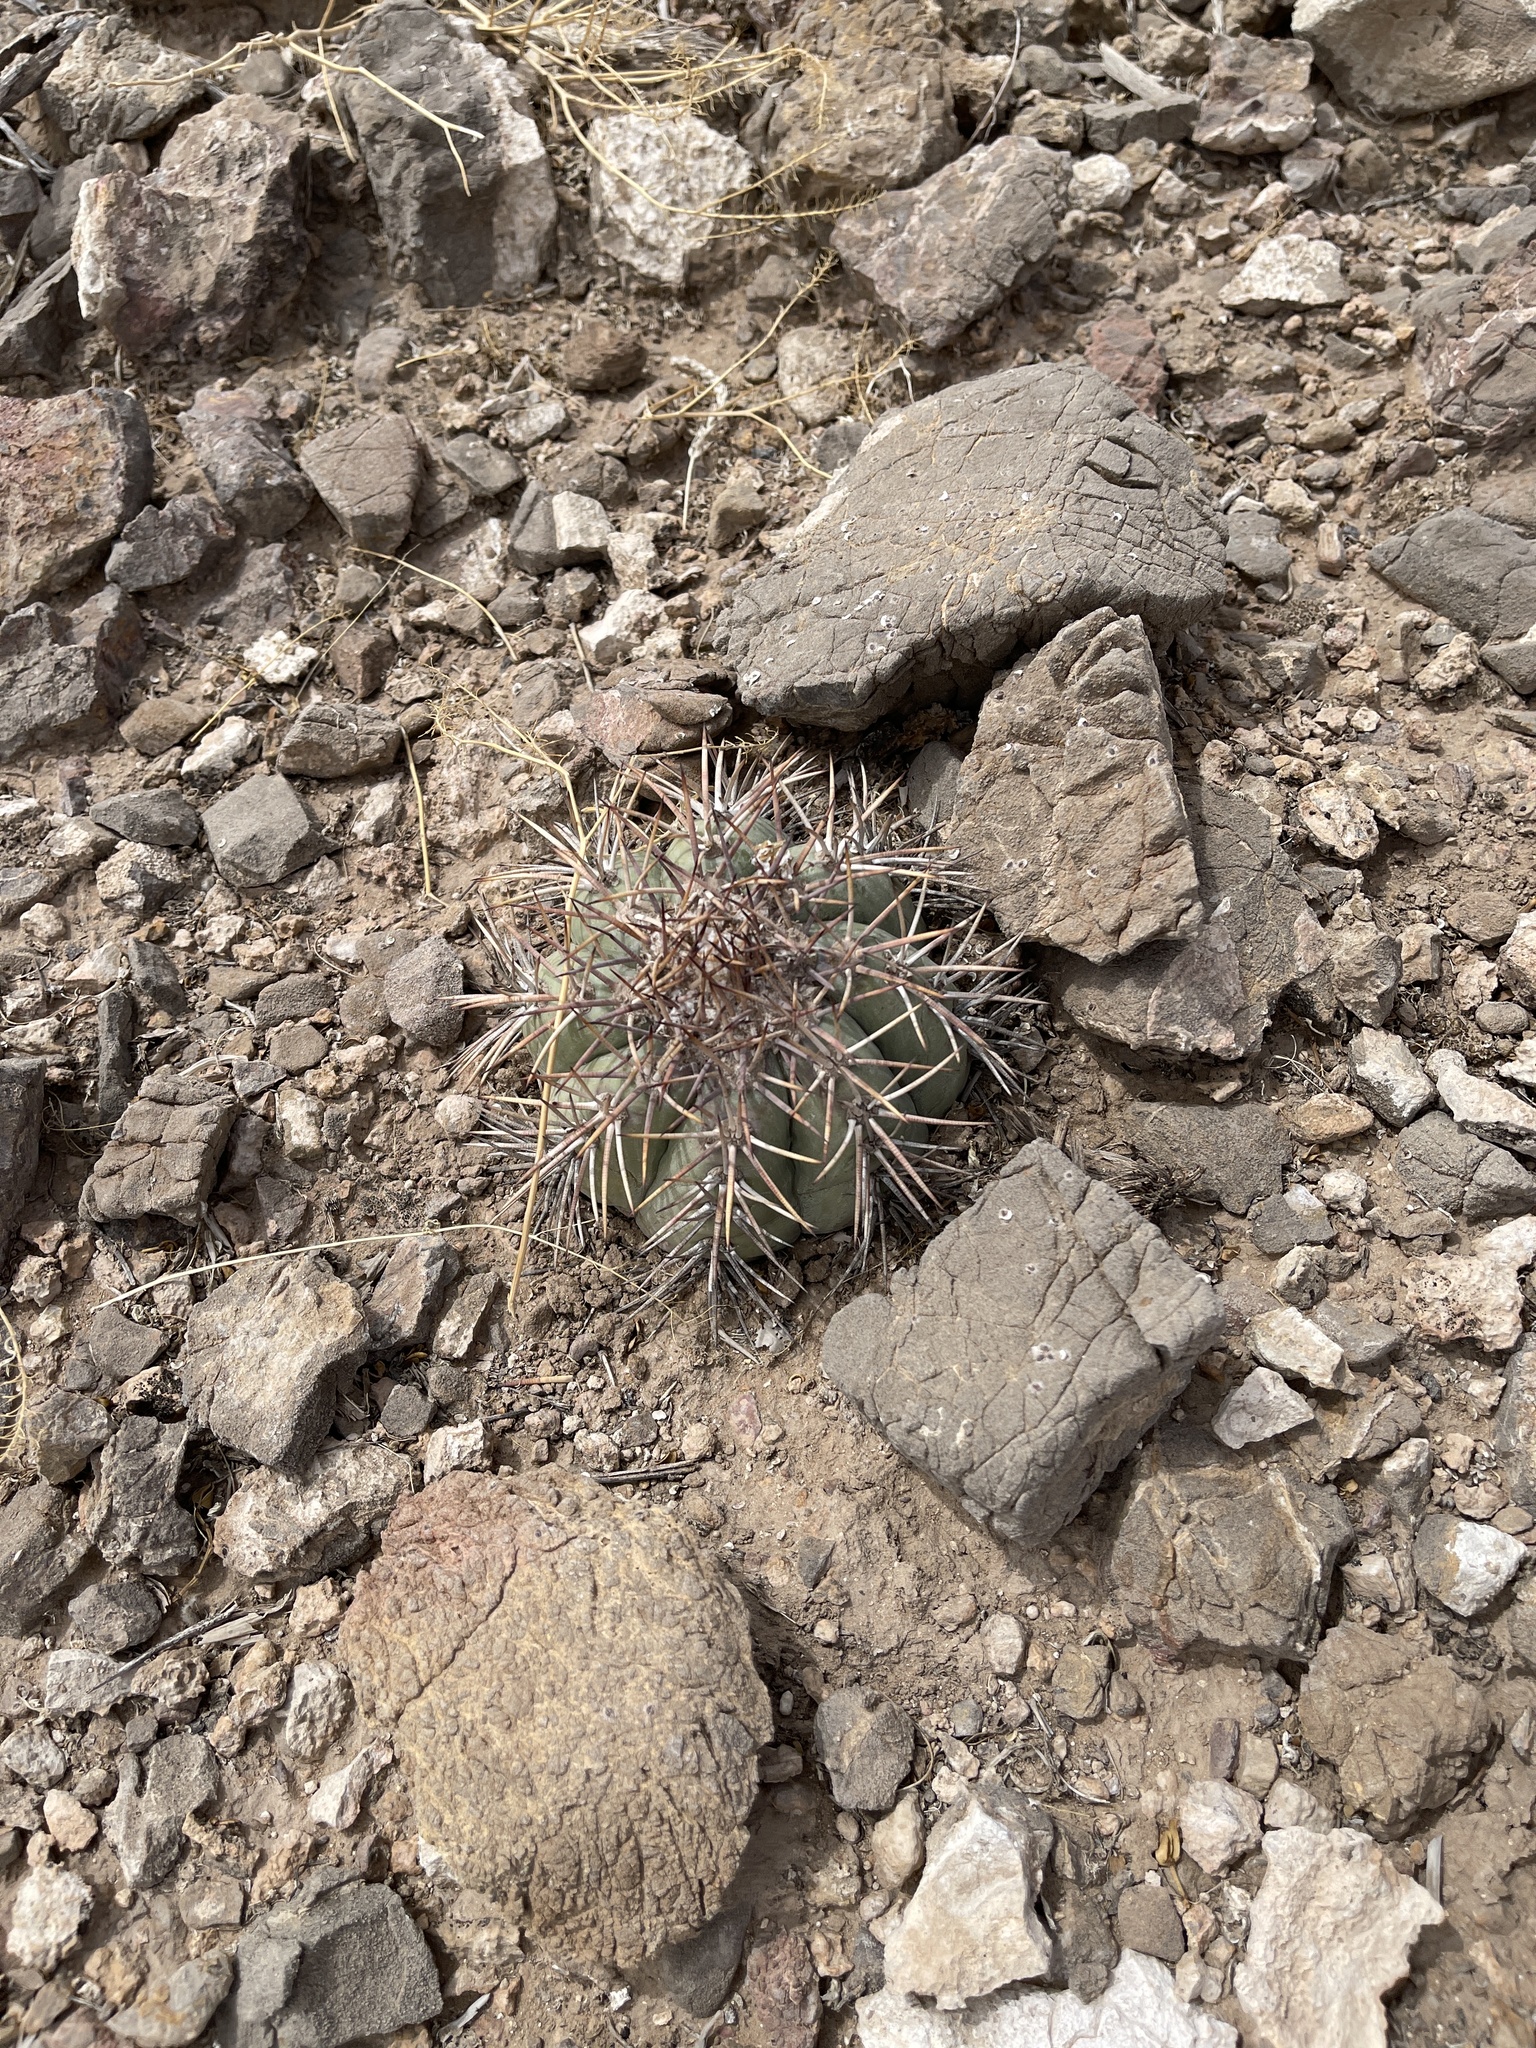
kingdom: Plantae
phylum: Tracheophyta
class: Magnoliopsida
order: Caryophyllales
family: Cactaceae
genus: Echinocactus
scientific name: Echinocactus horizonthalonius
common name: Devilshead
